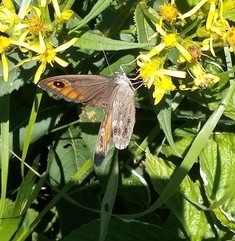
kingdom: Animalia
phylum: Arthropoda
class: Insecta
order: Lepidoptera
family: Nymphalidae
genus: Pararge
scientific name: Pararge Lasiommata maera
